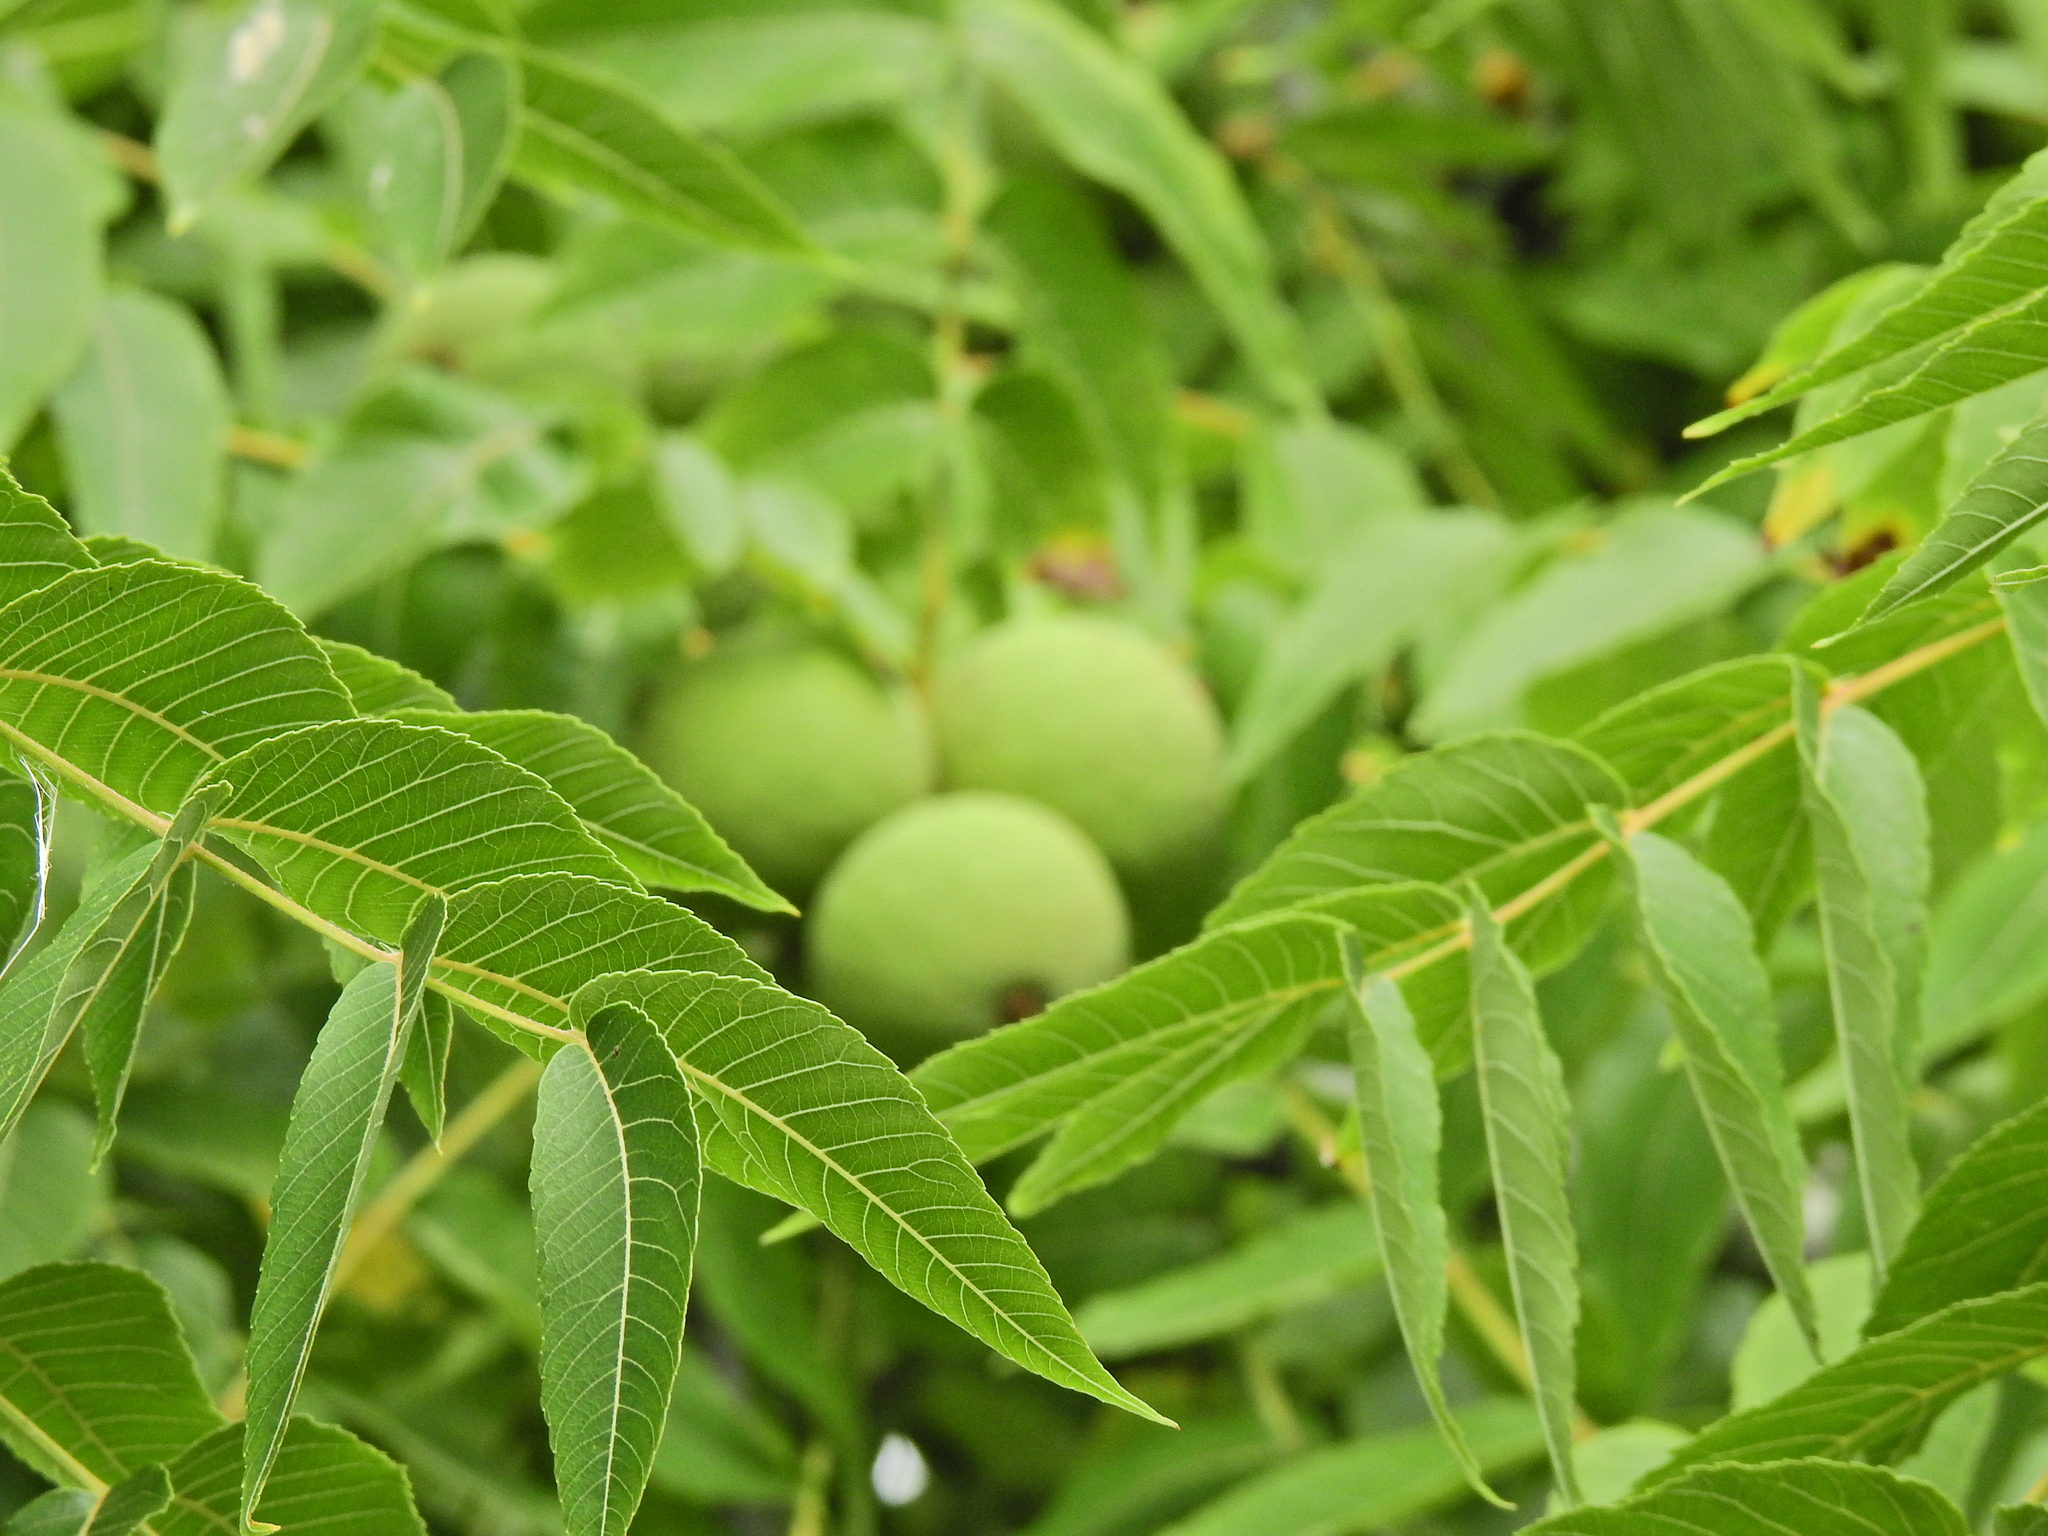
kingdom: Plantae
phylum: Tracheophyta
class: Magnoliopsida
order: Fagales
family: Juglandaceae
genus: Juglans
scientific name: Juglans nigra
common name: Black walnut
